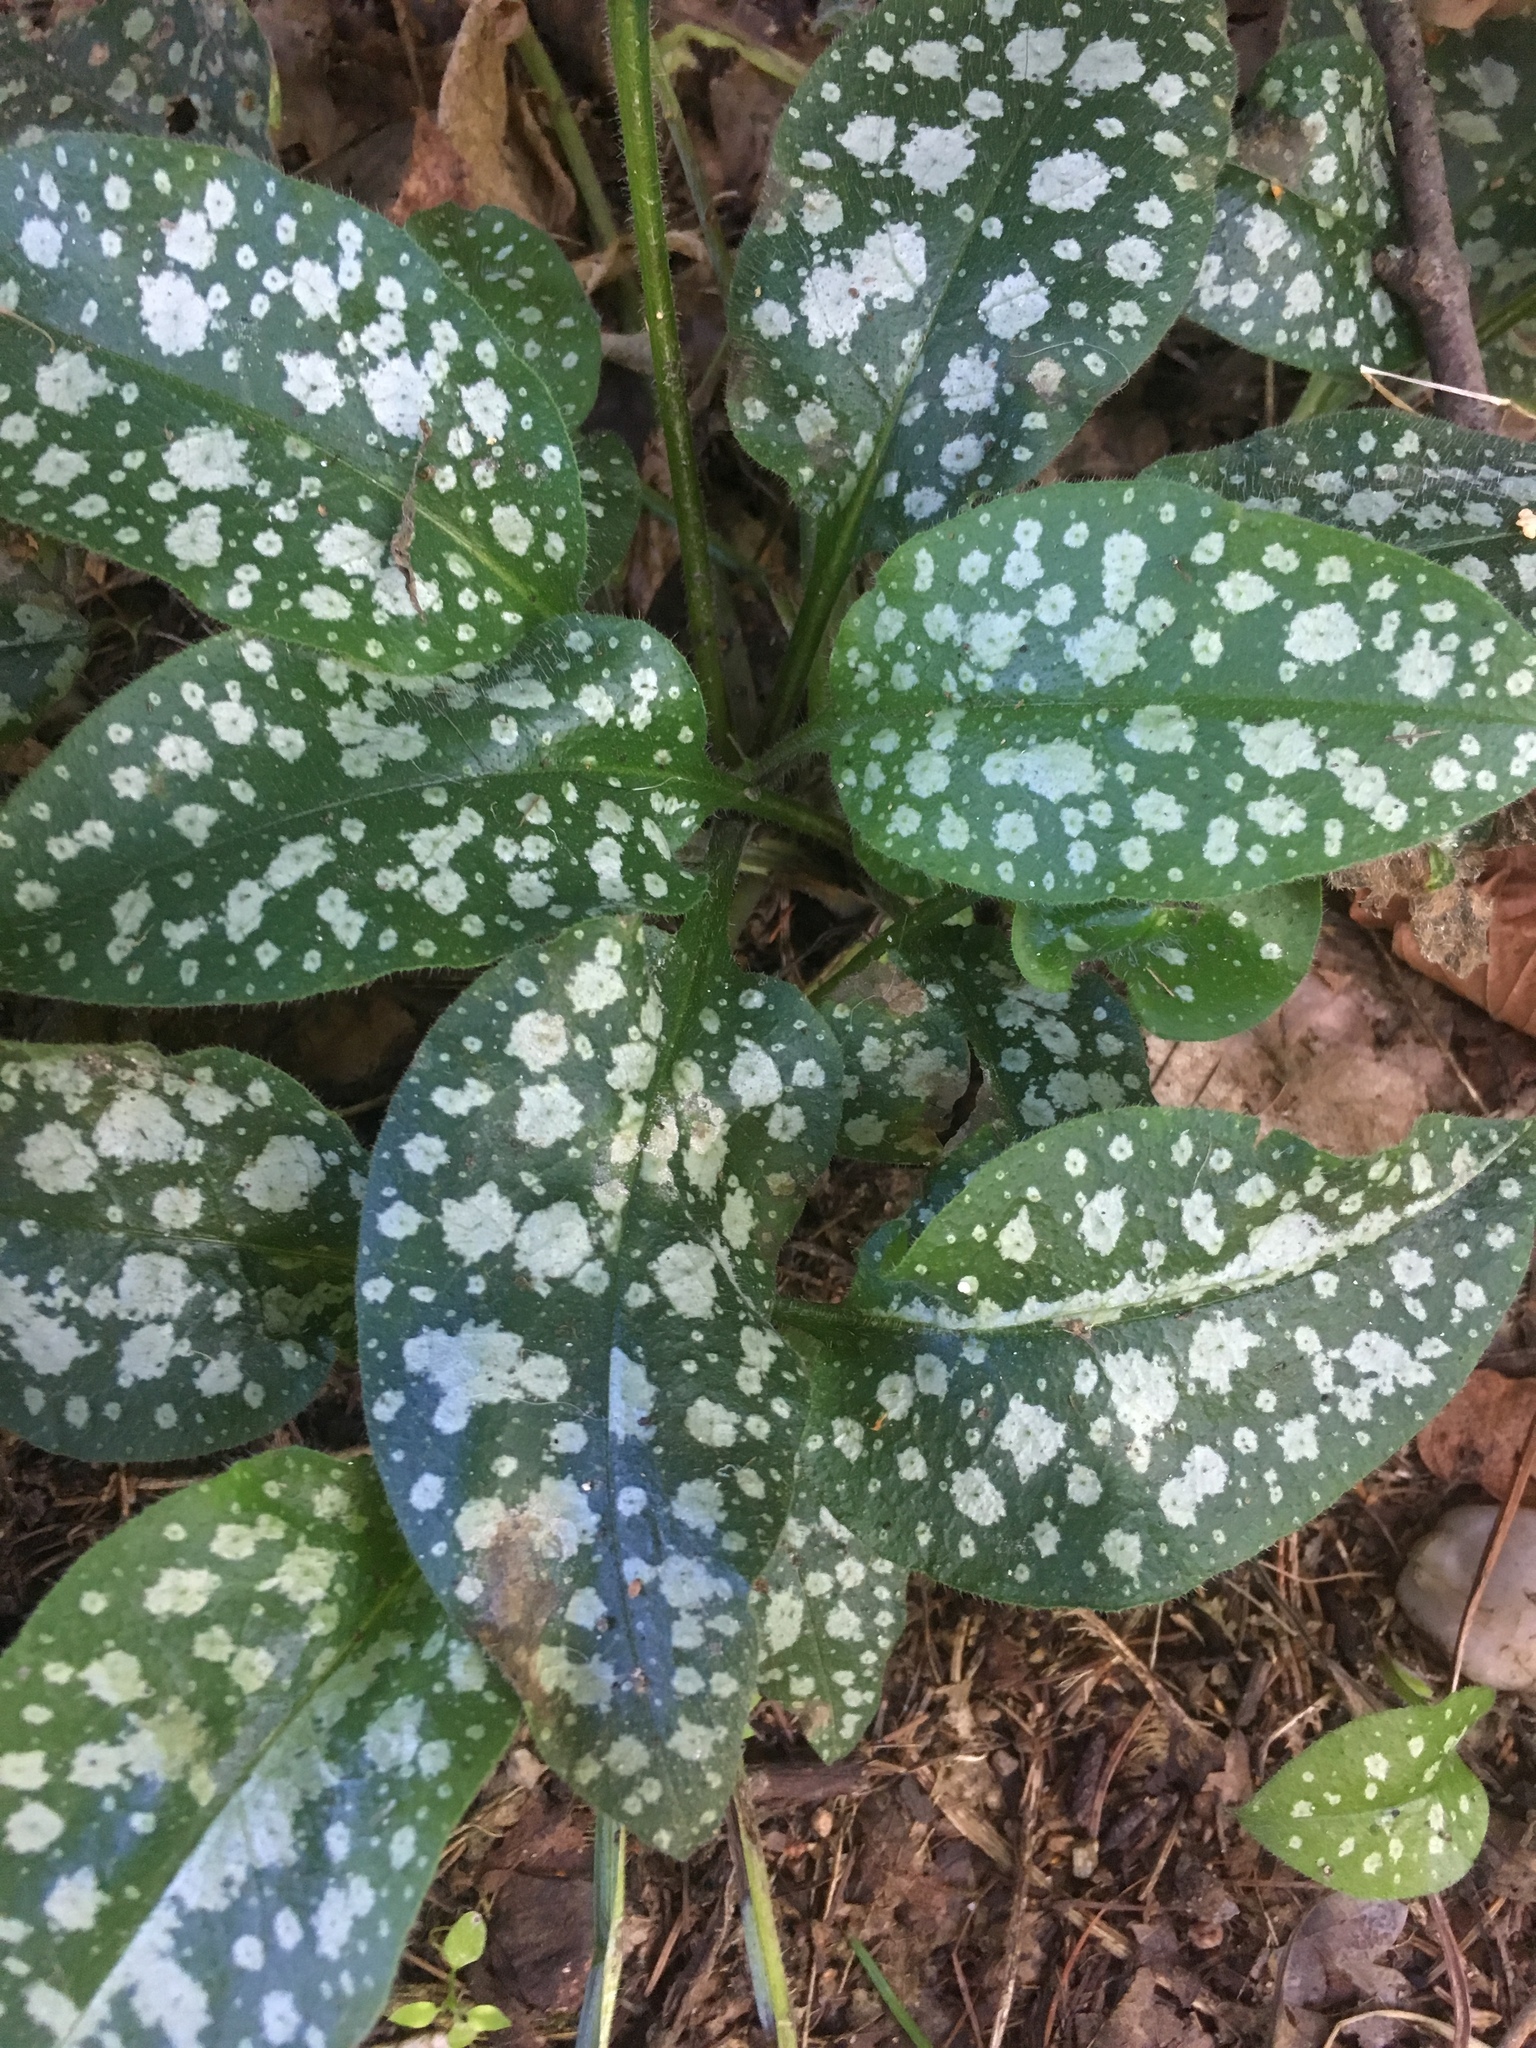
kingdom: Plantae
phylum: Tracheophyta
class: Magnoliopsida
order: Boraginales
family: Boraginaceae
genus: Pulmonaria
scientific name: Pulmonaria officinalis
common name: Lungwort
